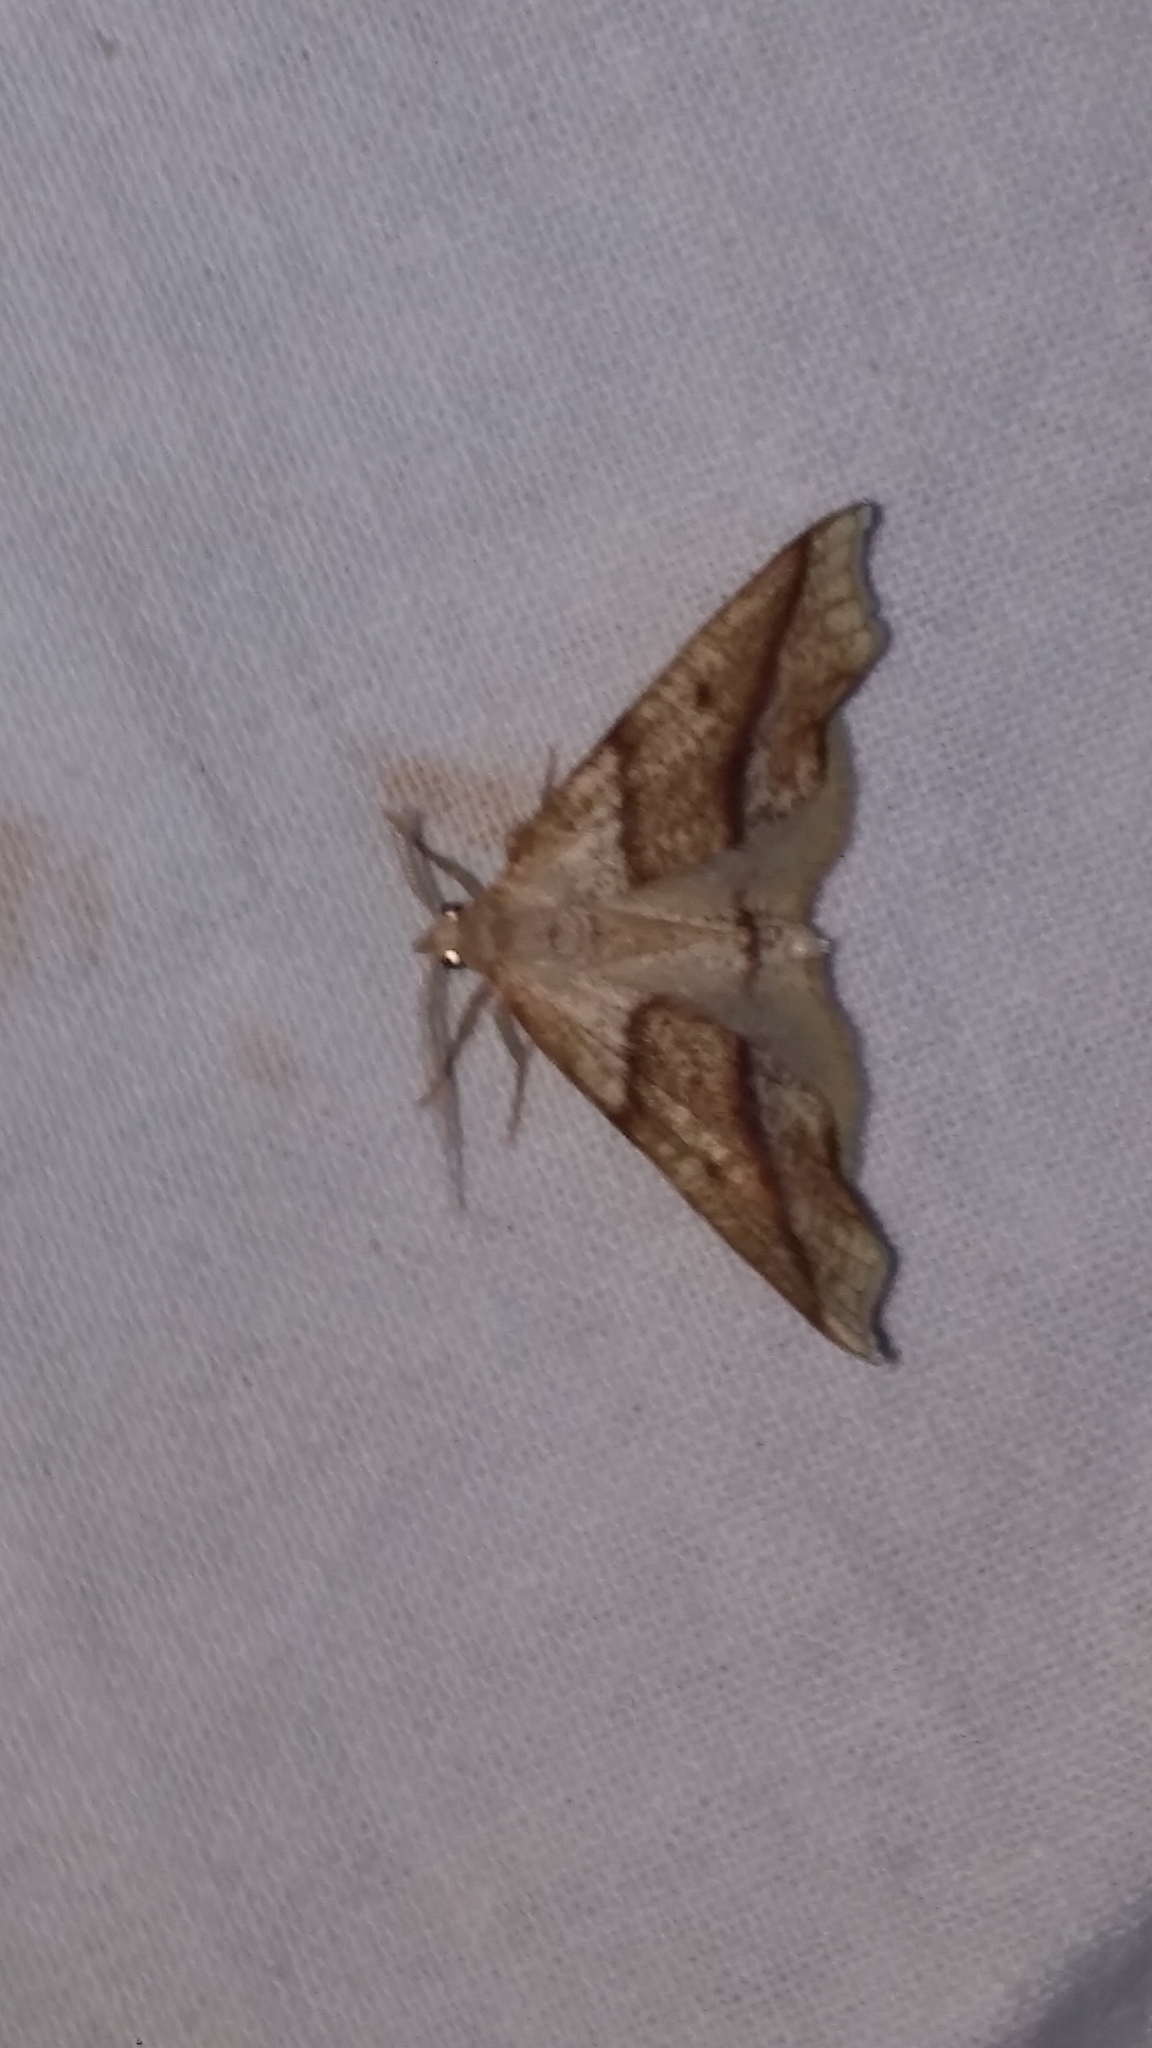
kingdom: Animalia
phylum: Arthropoda
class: Insecta
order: Lepidoptera
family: Geometridae
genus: Plagodis
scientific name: Plagodis alcoolaria
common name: Hollow-spotted plagodis
